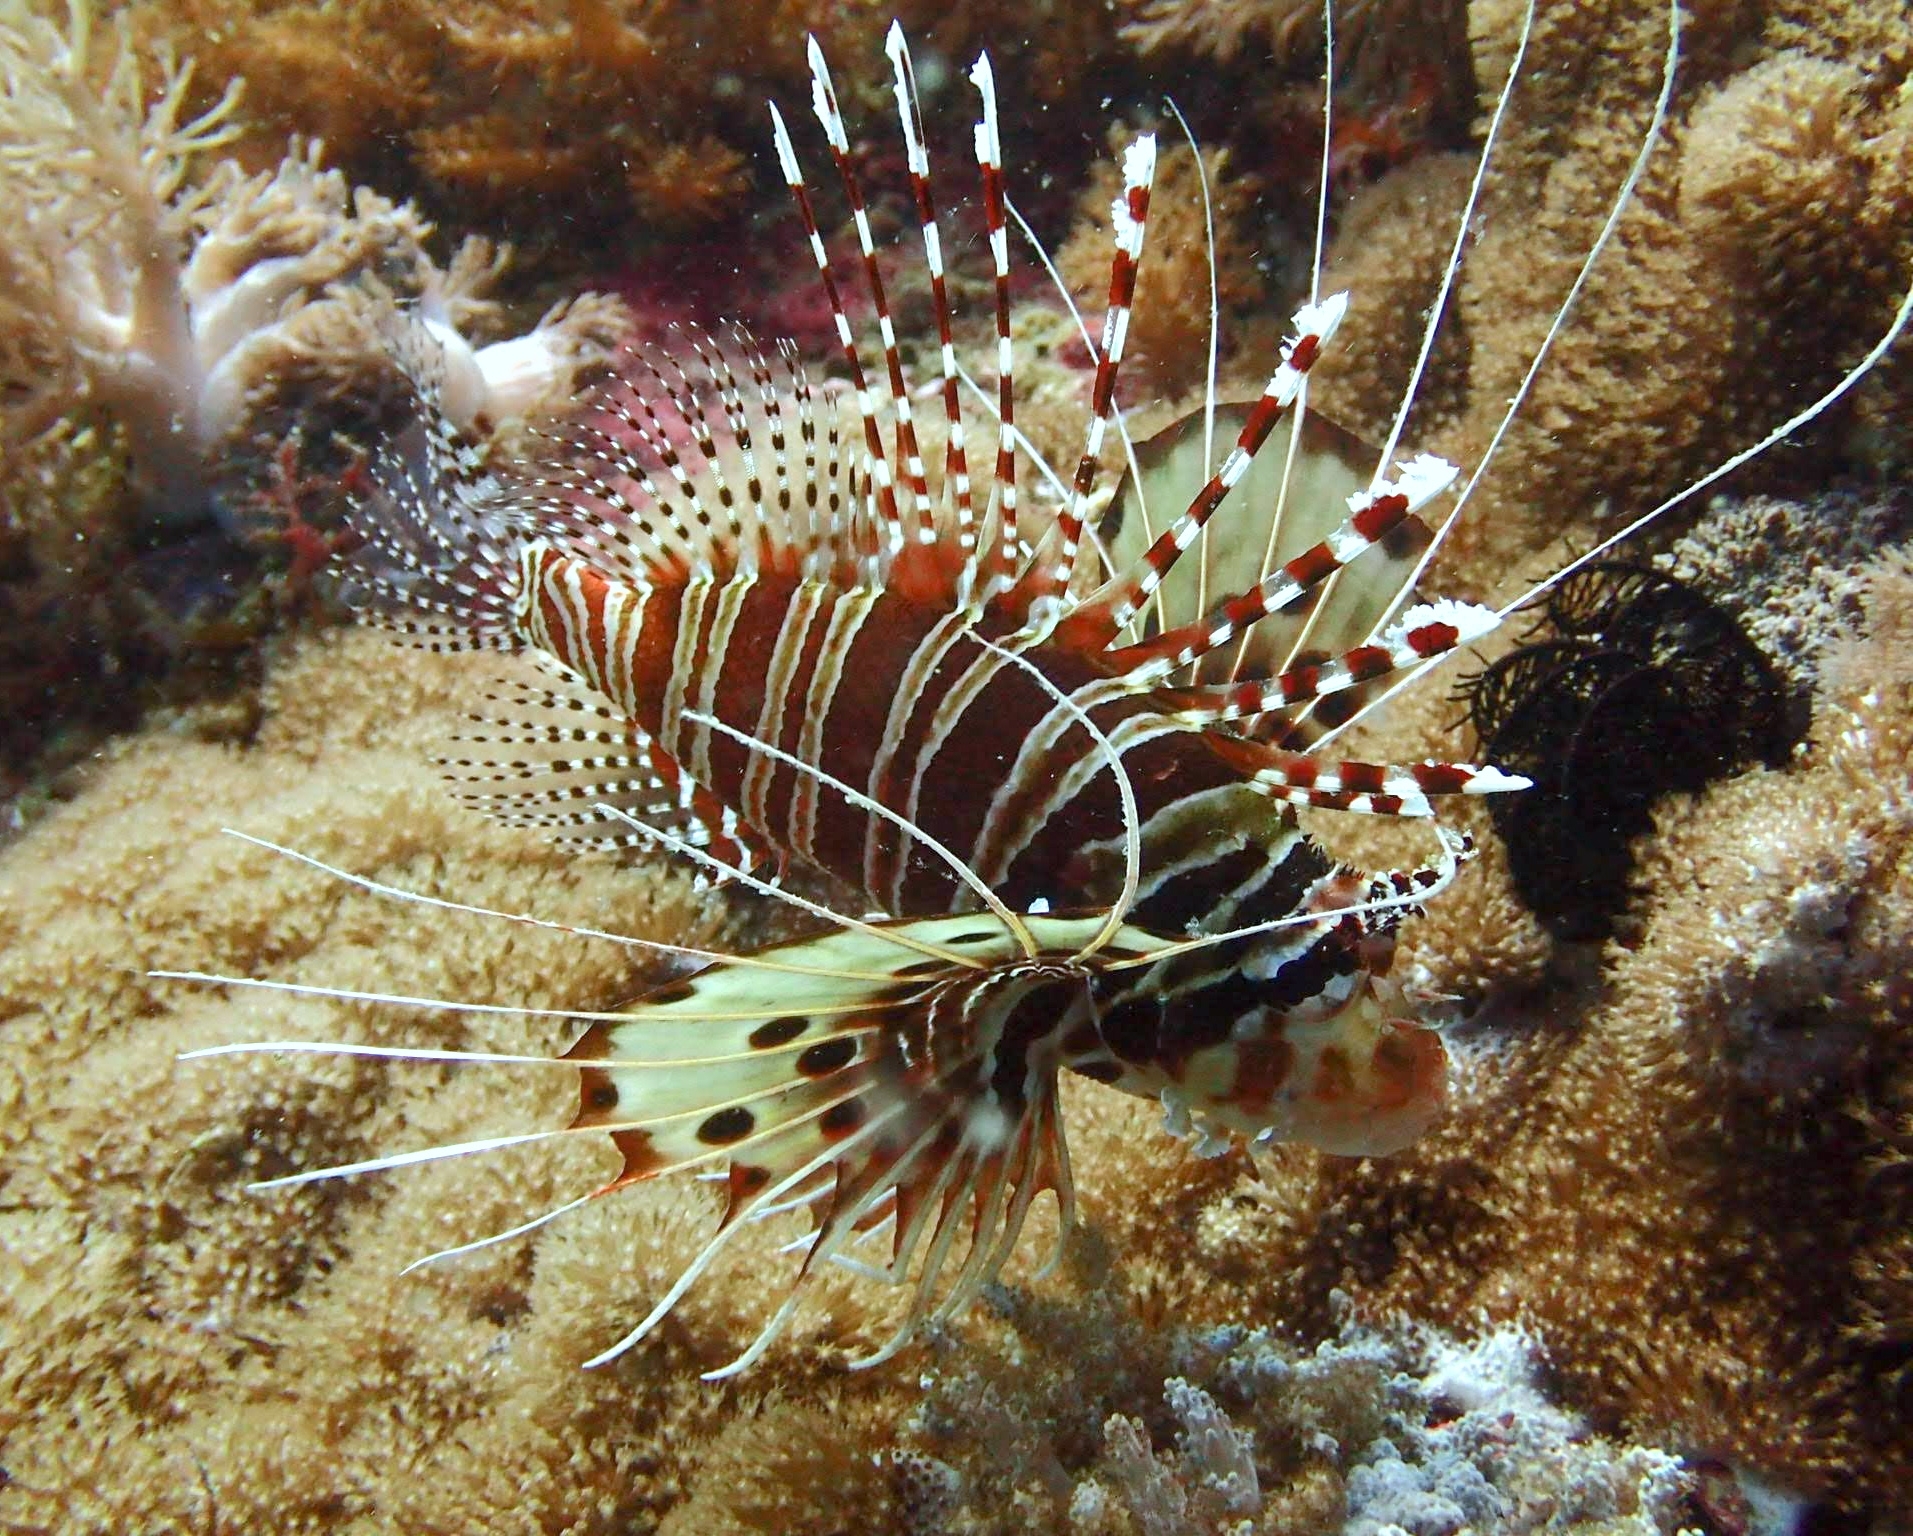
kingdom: Animalia
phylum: Chordata
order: Scorpaeniformes
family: Scorpaenidae
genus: Pterois
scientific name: Pterois antennata
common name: Spotfin lionfish
